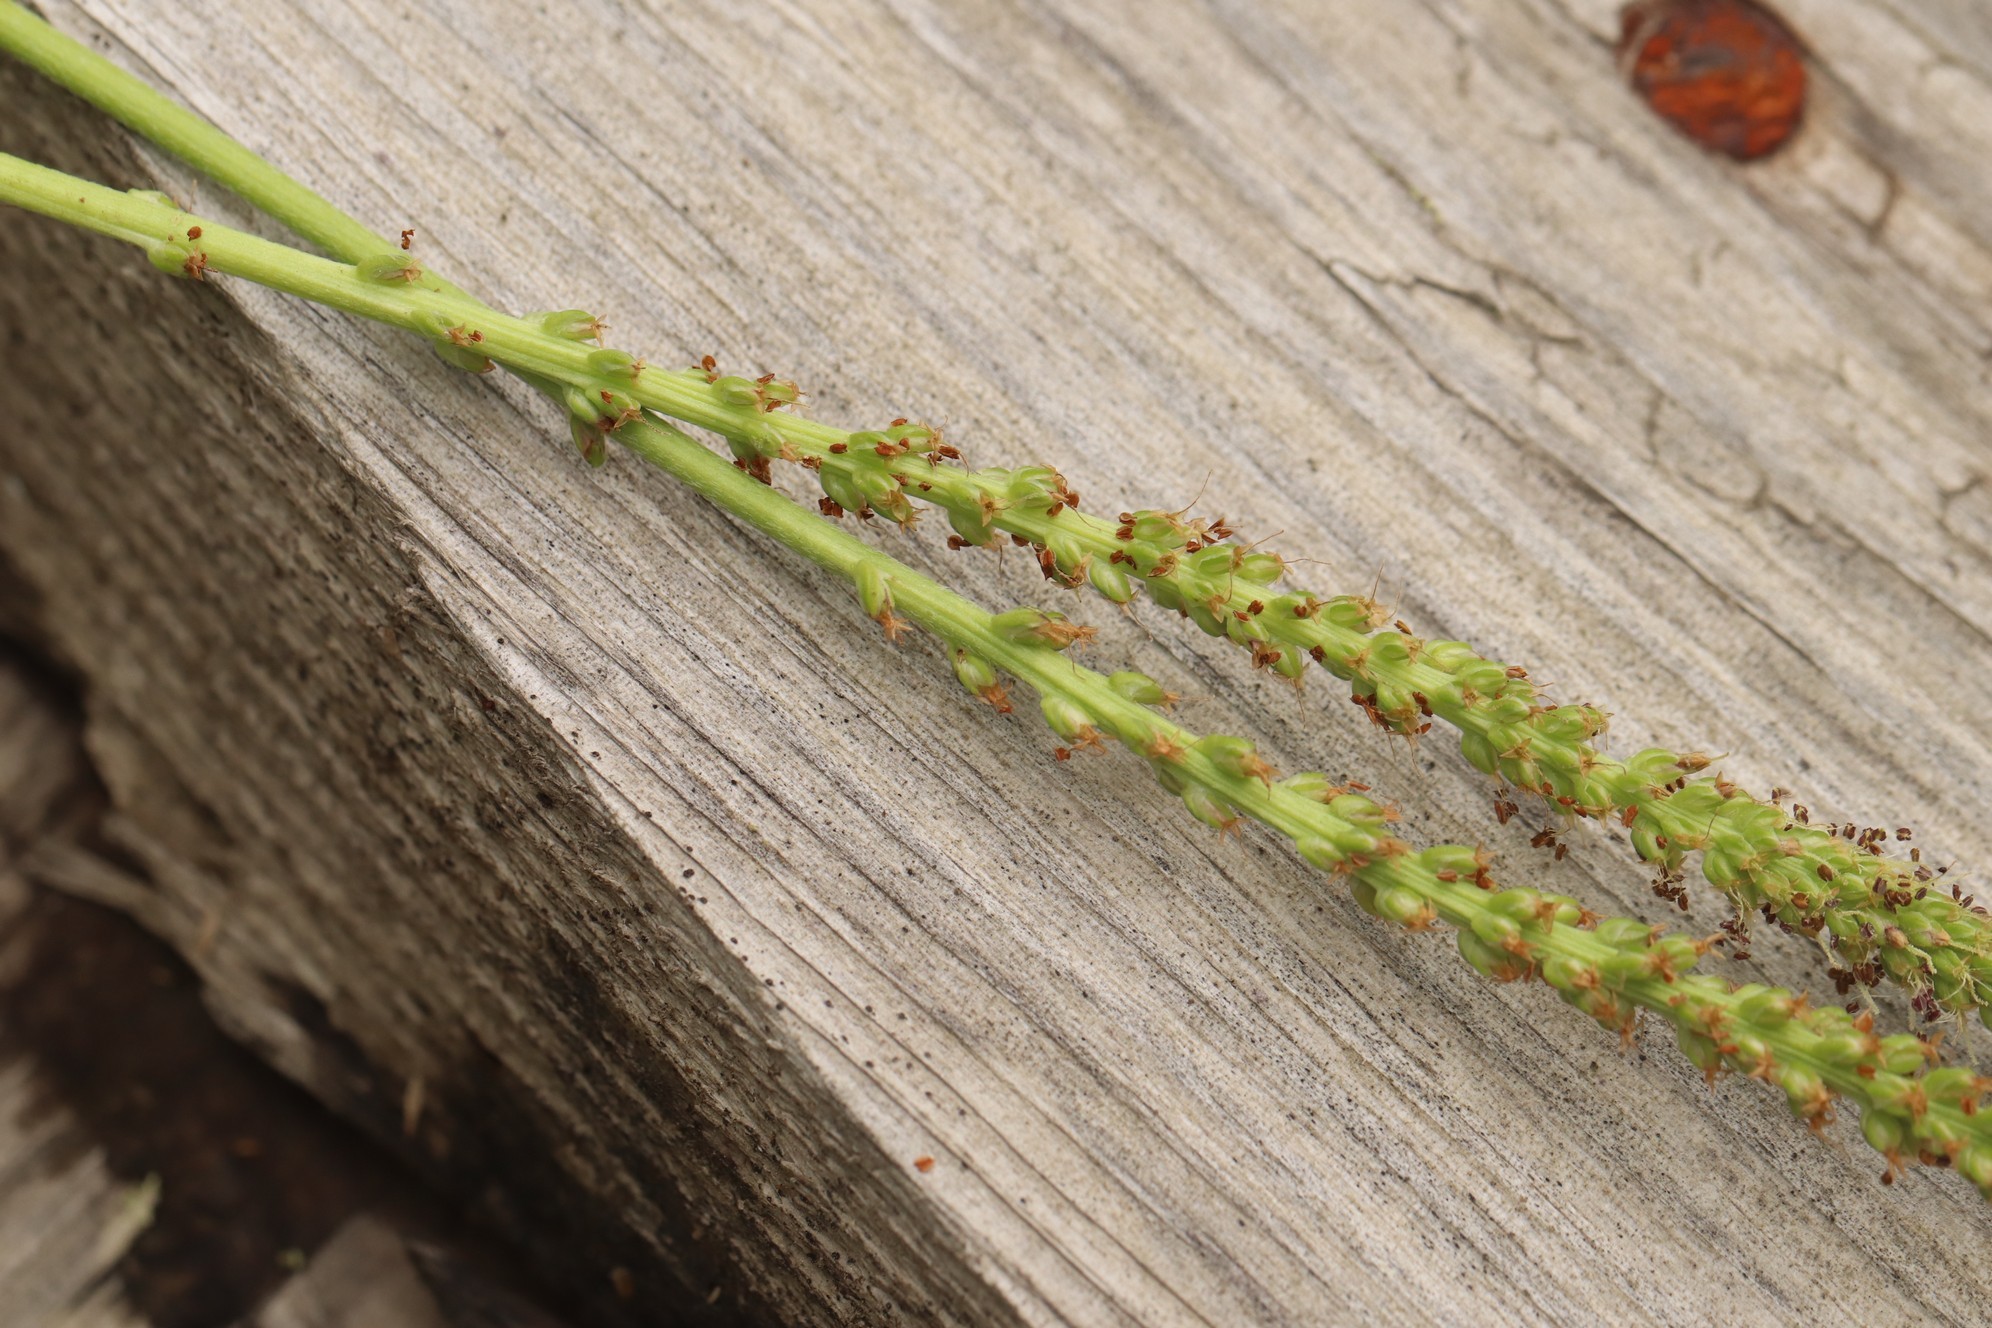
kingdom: Plantae
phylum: Tracheophyta
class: Magnoliopsida
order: Lamiales
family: Plantaginaceae
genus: Plantago
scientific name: Plantago major
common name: Common plantain
